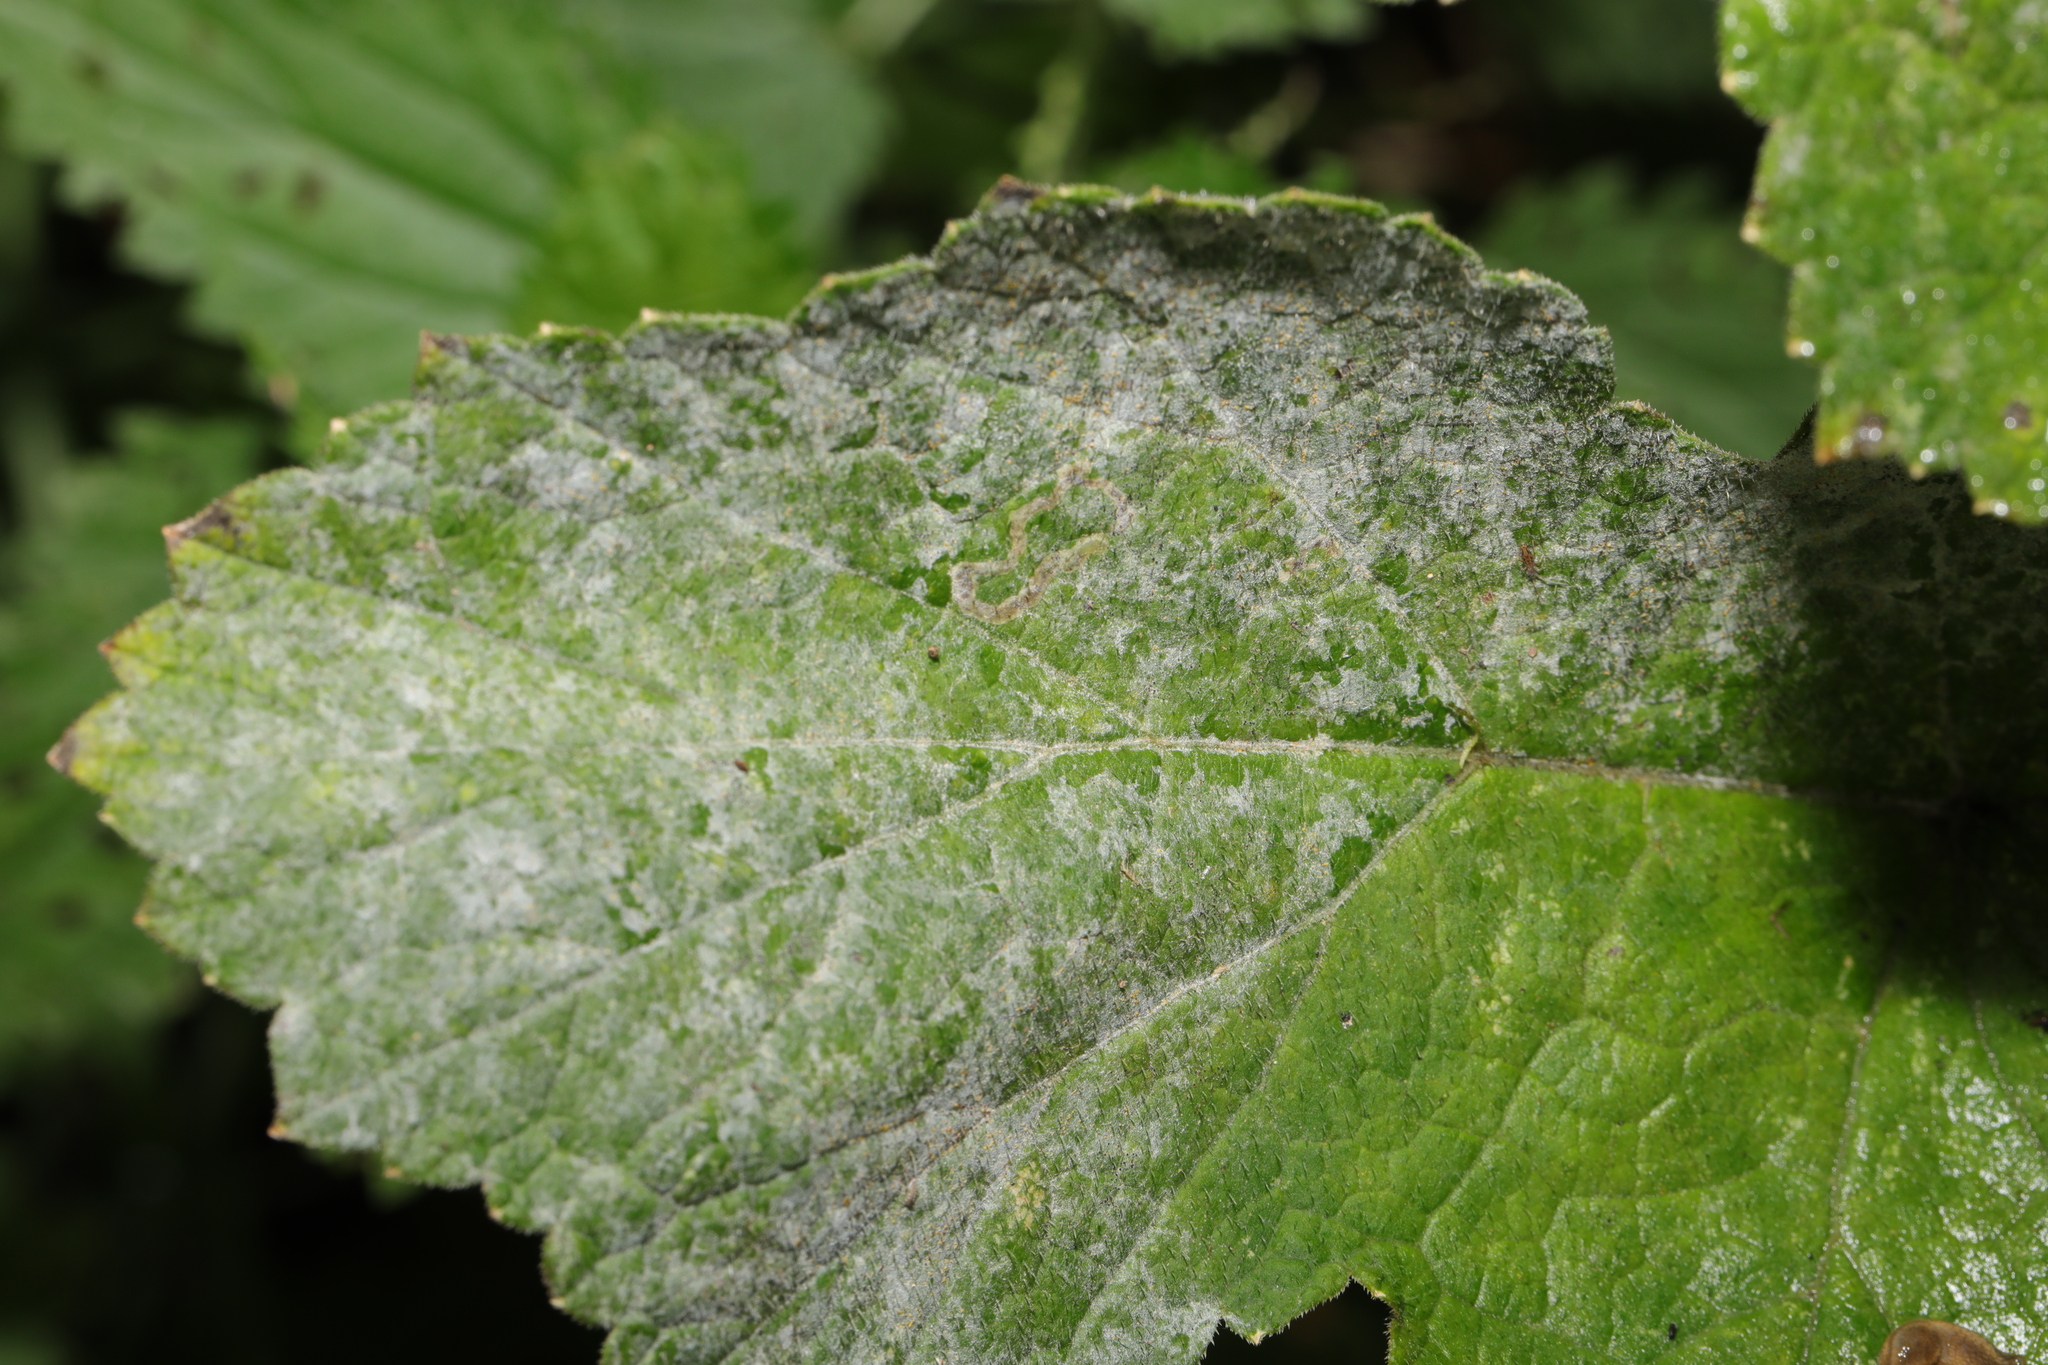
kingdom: Fungi
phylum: Ascomycota
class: Leotiomycetes
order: Helotiales
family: Erysiphaceae
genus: Erysiphe
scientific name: Erysiphe heraclei
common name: Umbellifer mildew
